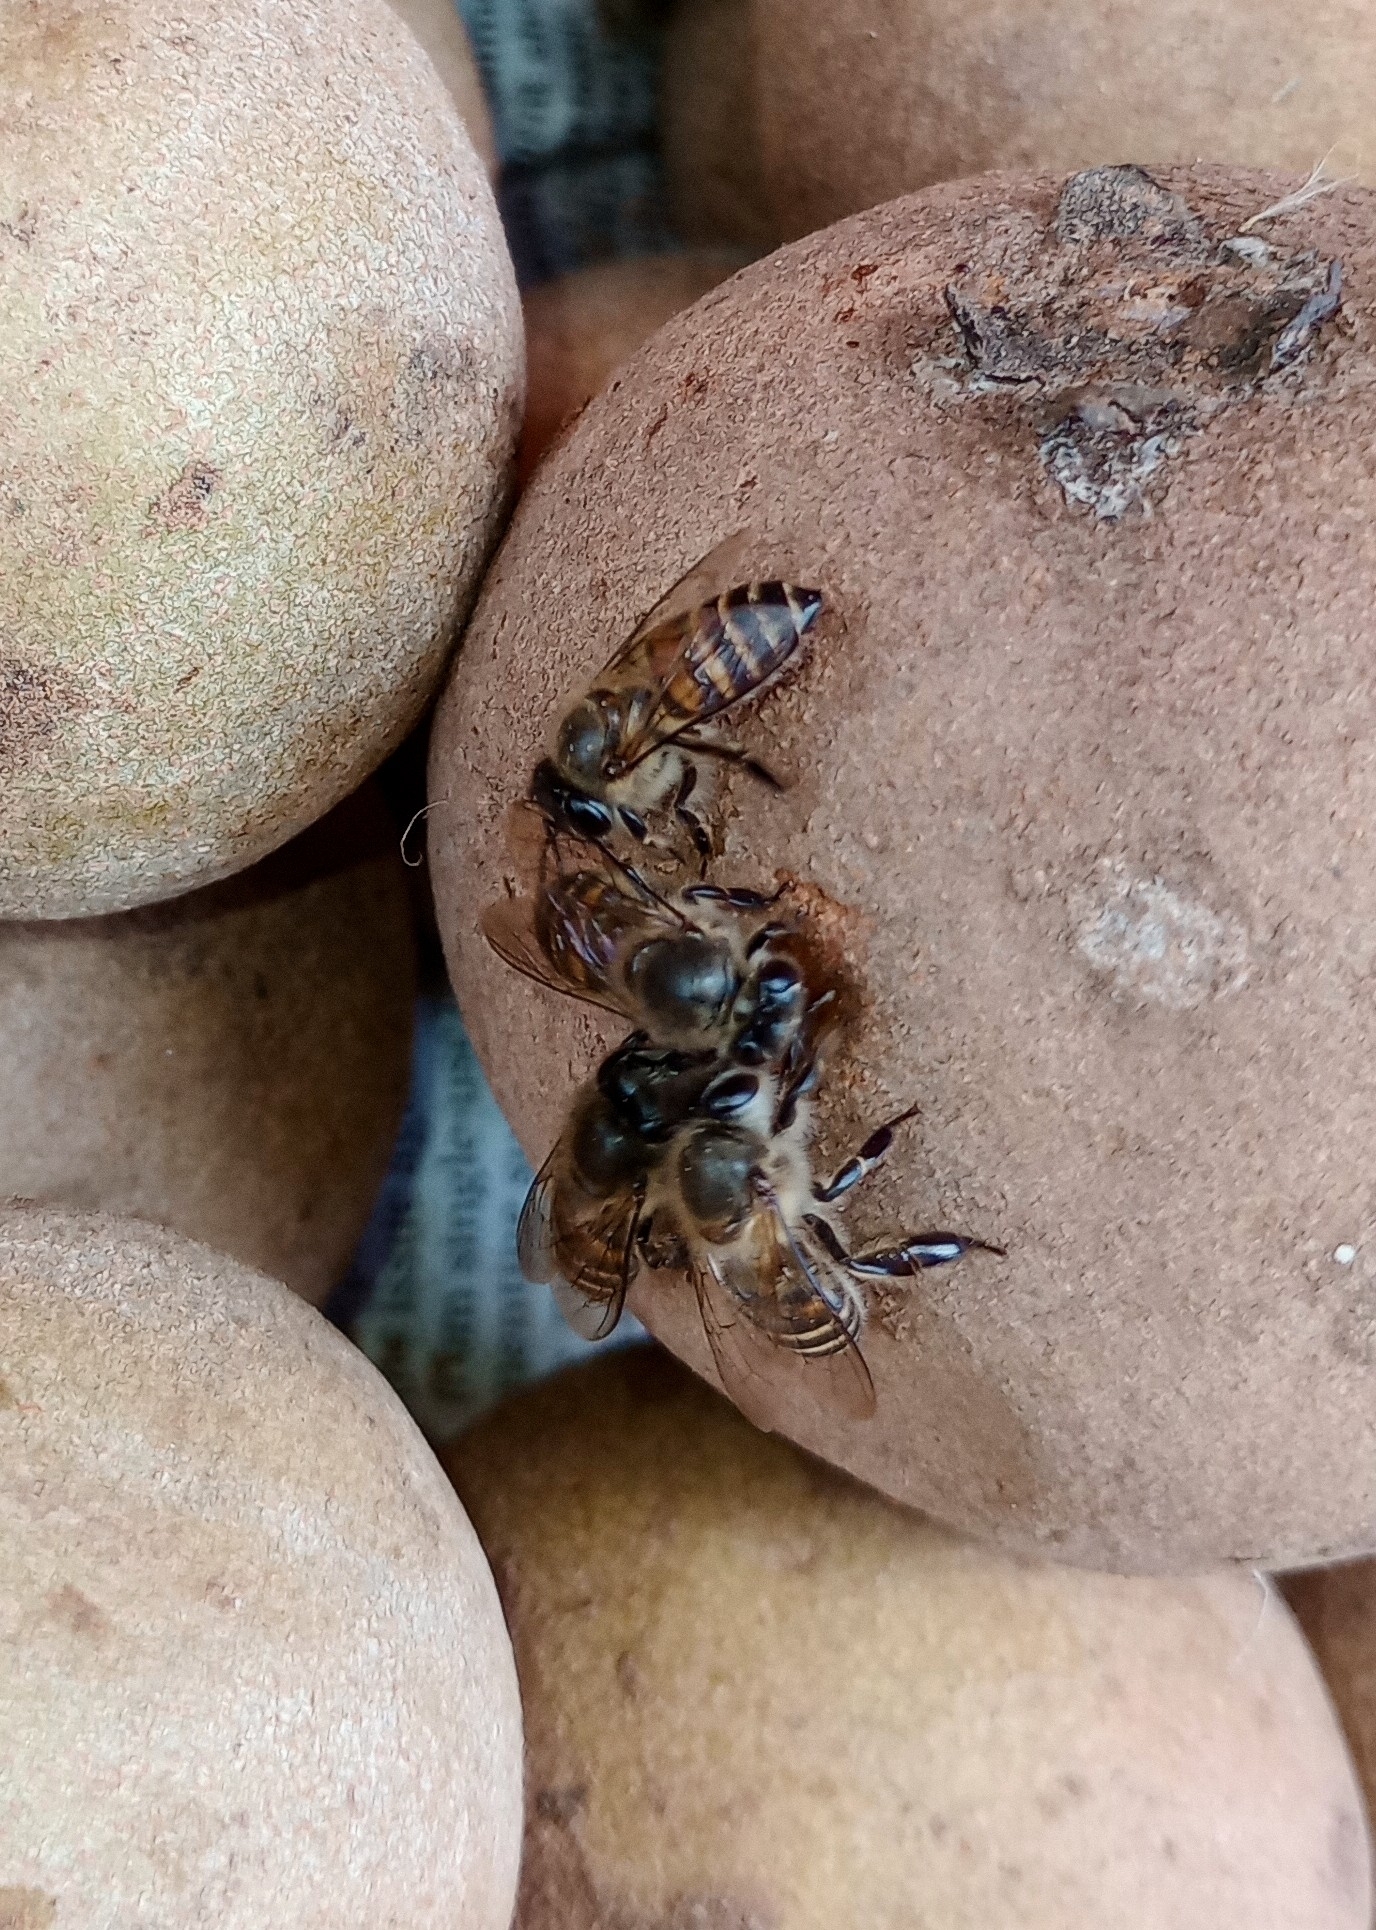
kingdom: Animalia
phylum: Arthropoda
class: Insecta
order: Hymenoptera
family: Apidae
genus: Apis
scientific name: Apis cerana
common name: Honey bee
